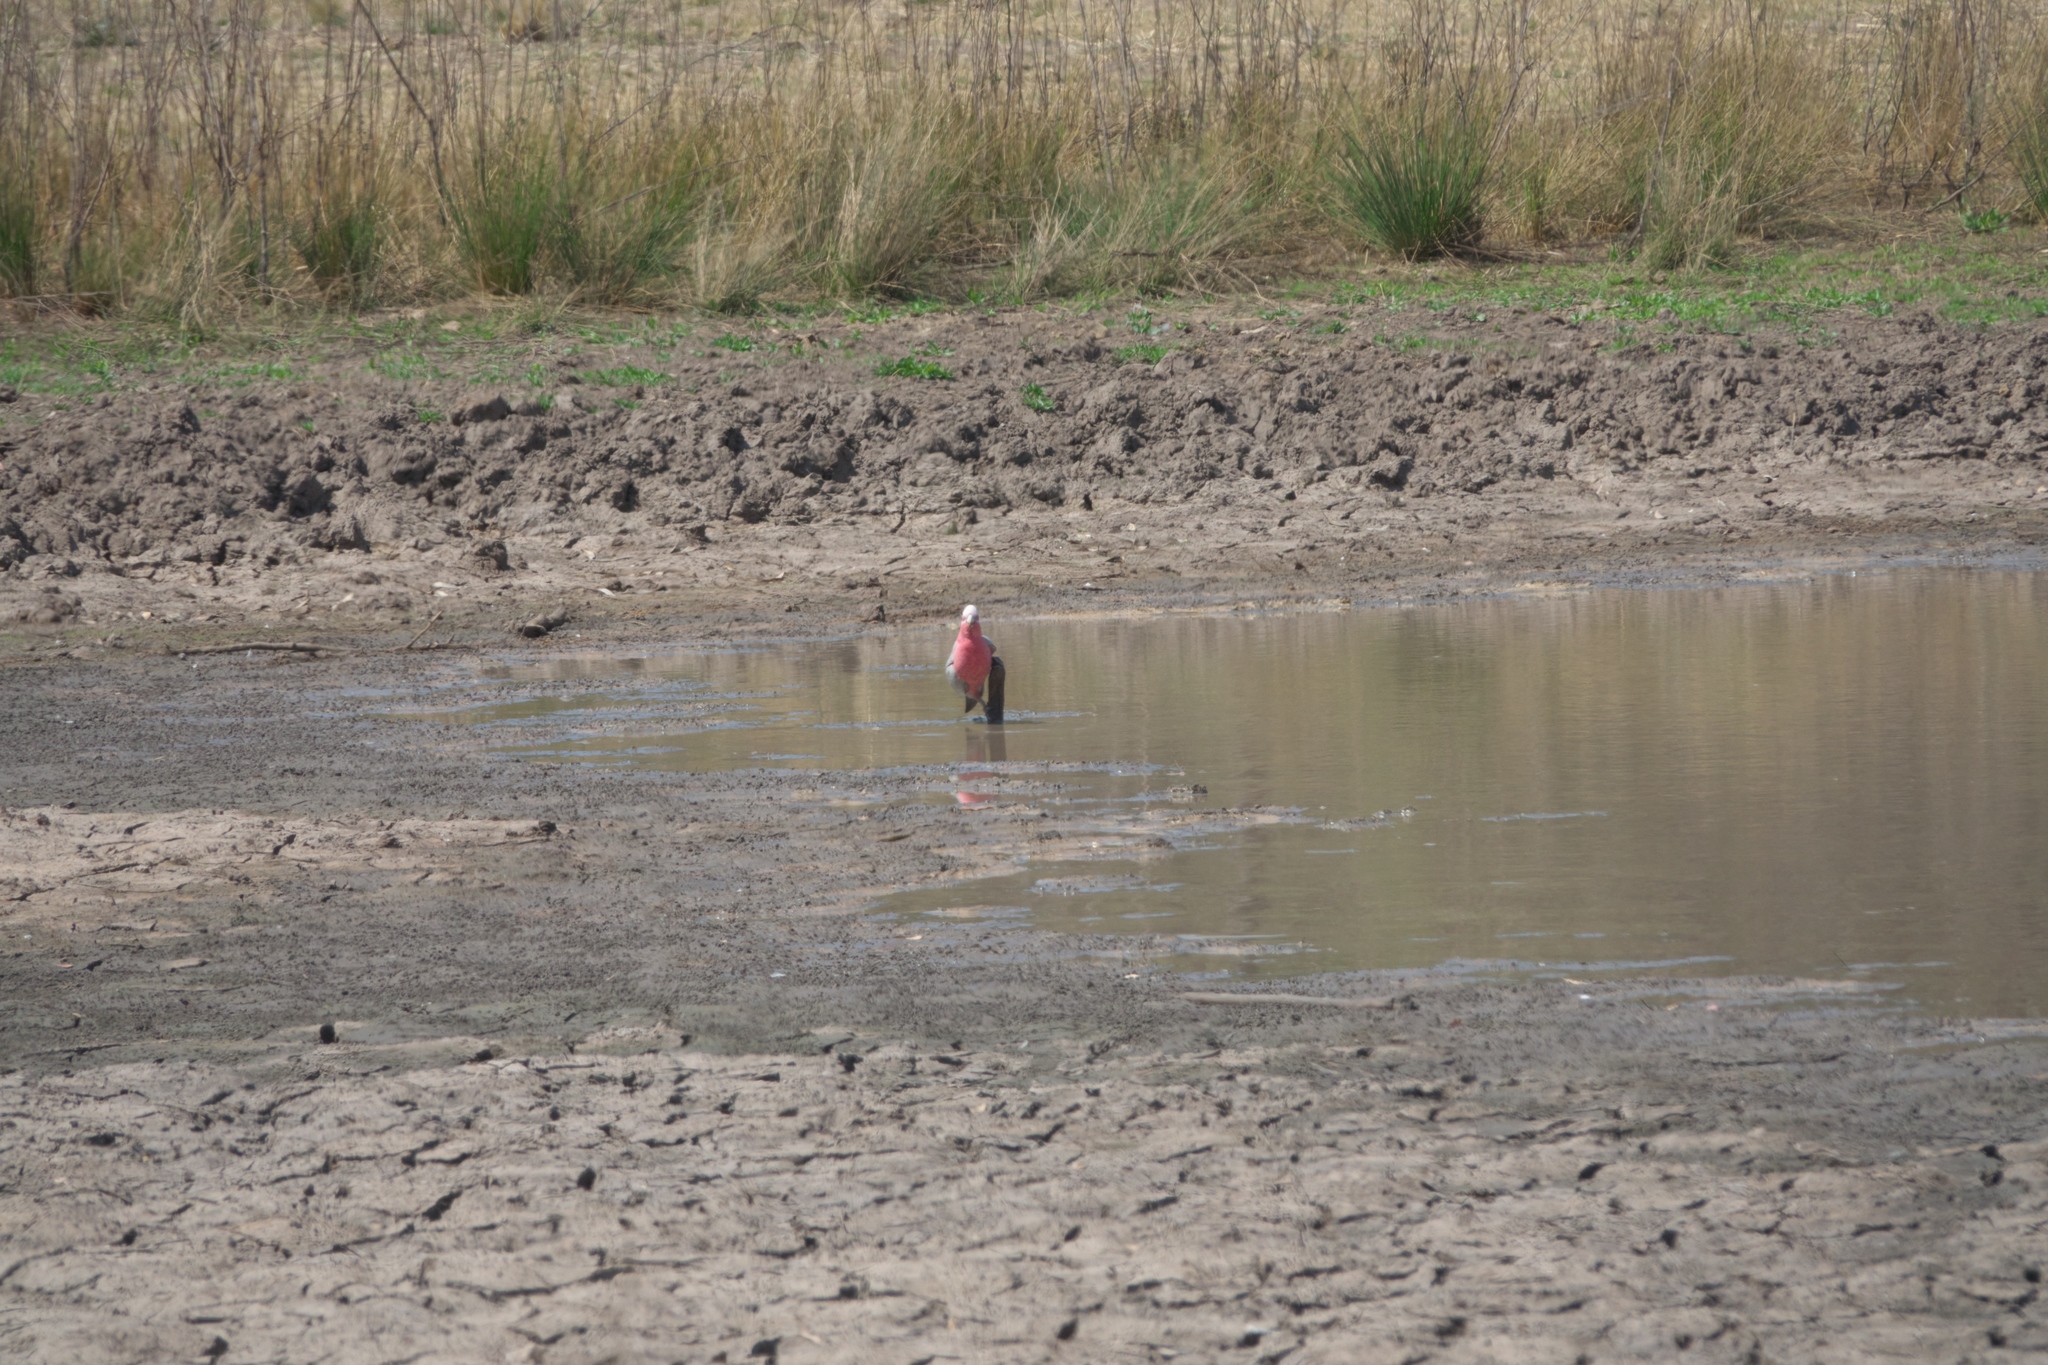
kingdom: Animalia
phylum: Chordata
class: Aves
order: Psittaciformes
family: Psittacidae
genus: Eolophus
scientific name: Eolophus roseicapilla
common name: Galah
